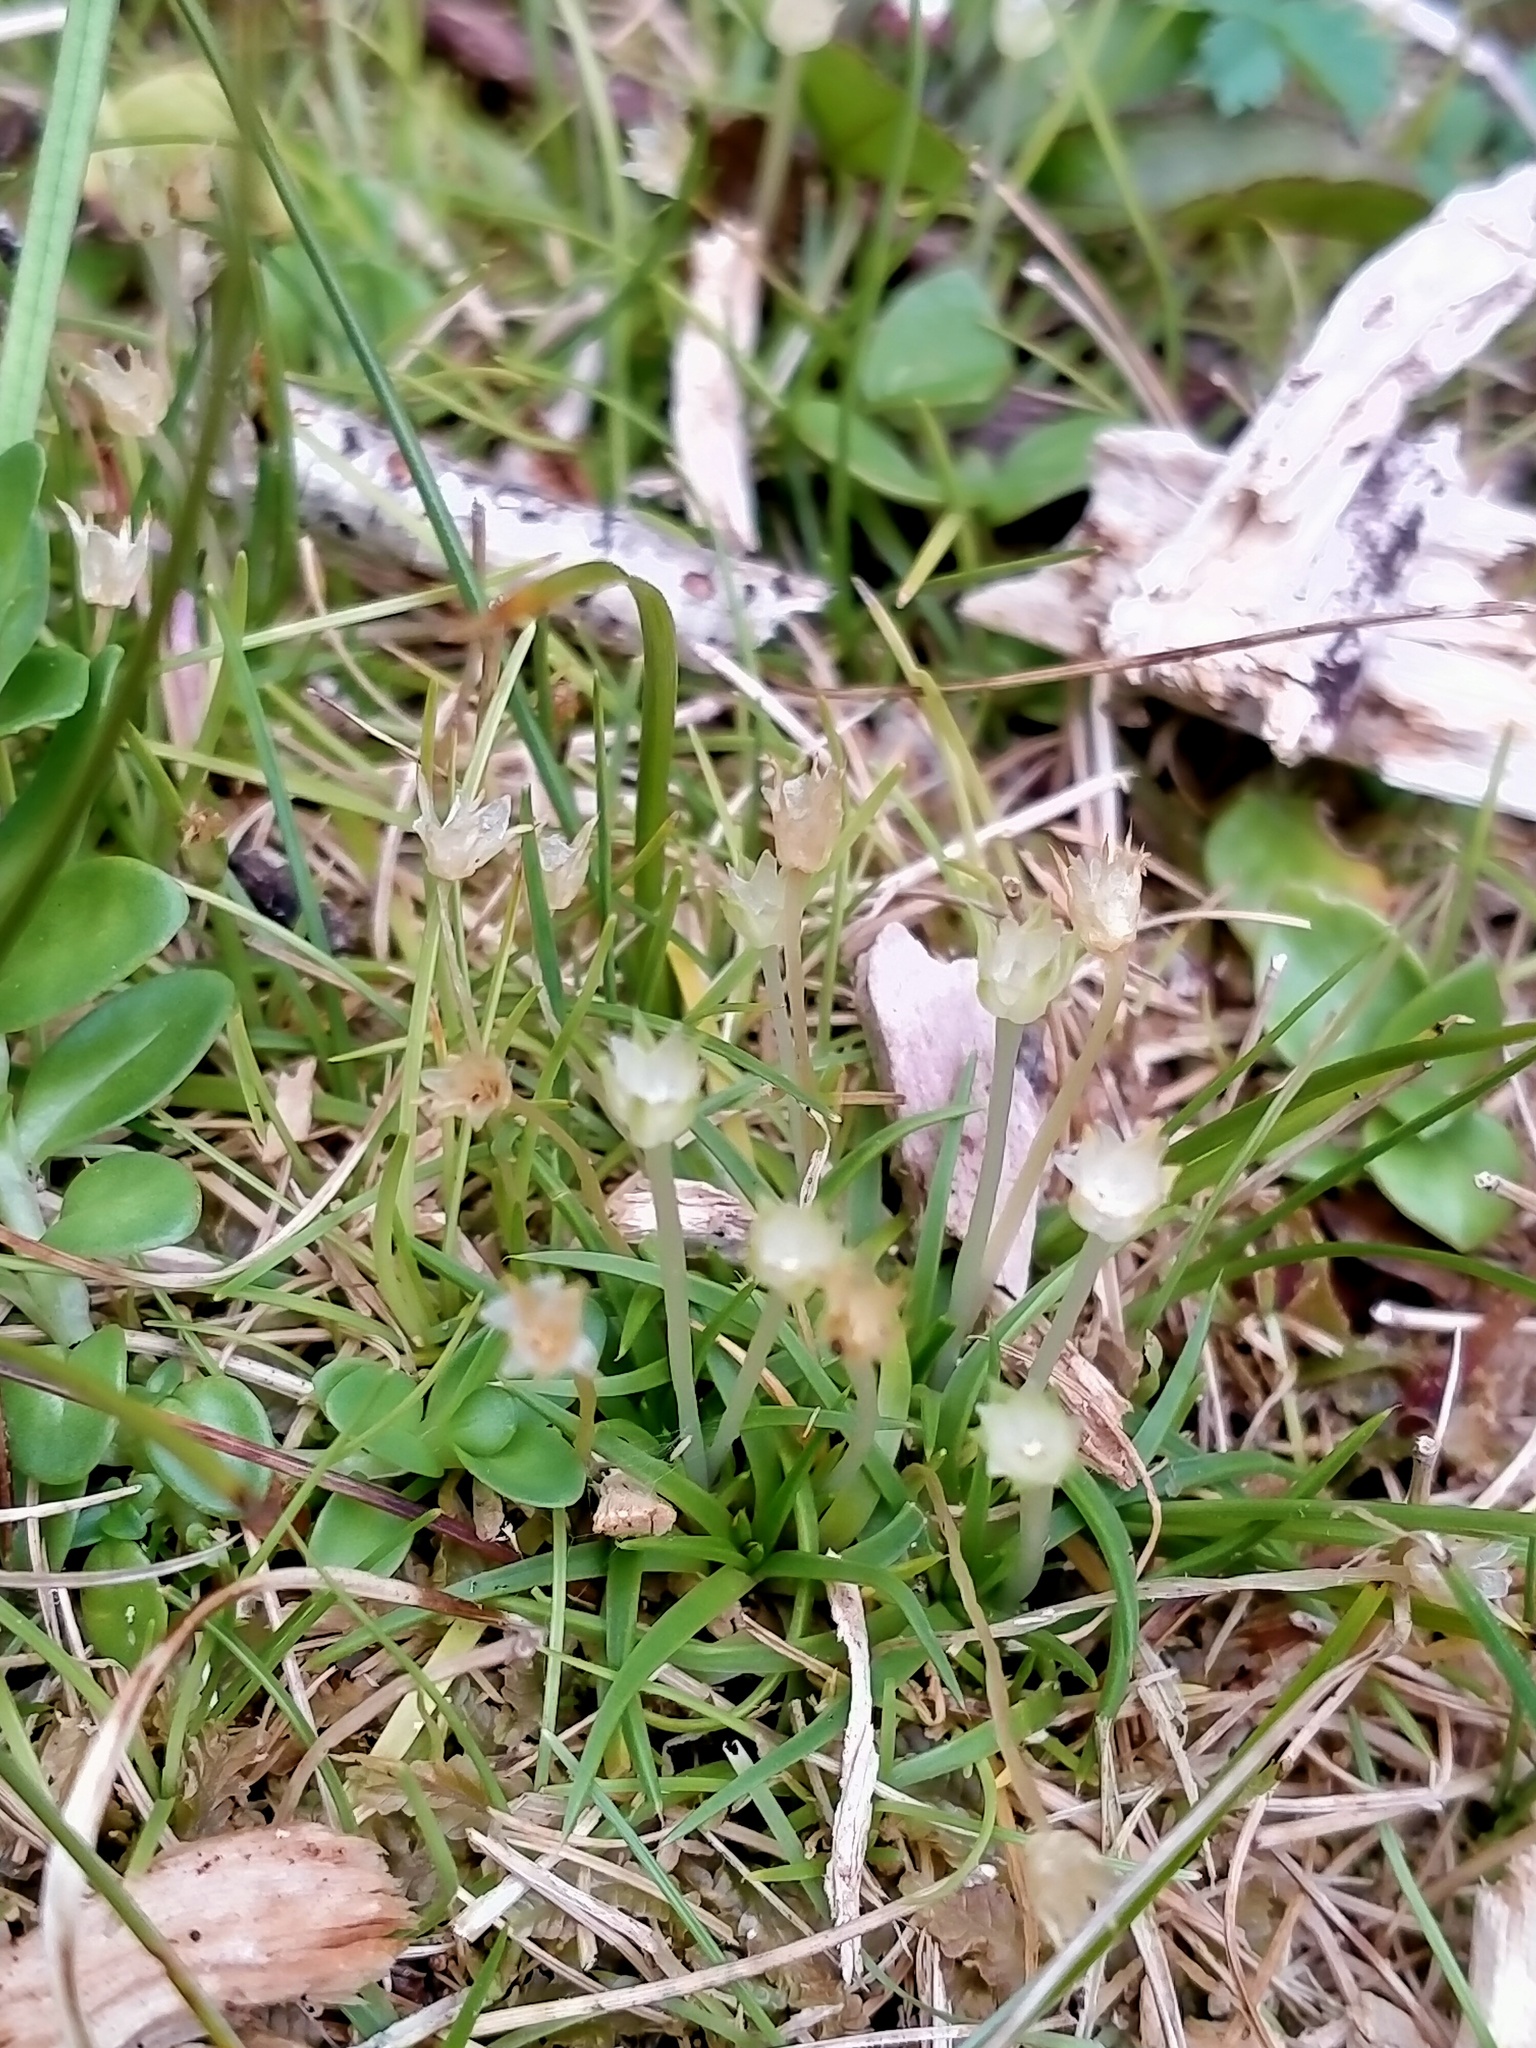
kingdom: Plantae
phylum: Tracheophyta
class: Magnoliopsida
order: Caryophyllales
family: Caryophyllaceae
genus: Colobanthus
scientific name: Colobanthus apetalus
